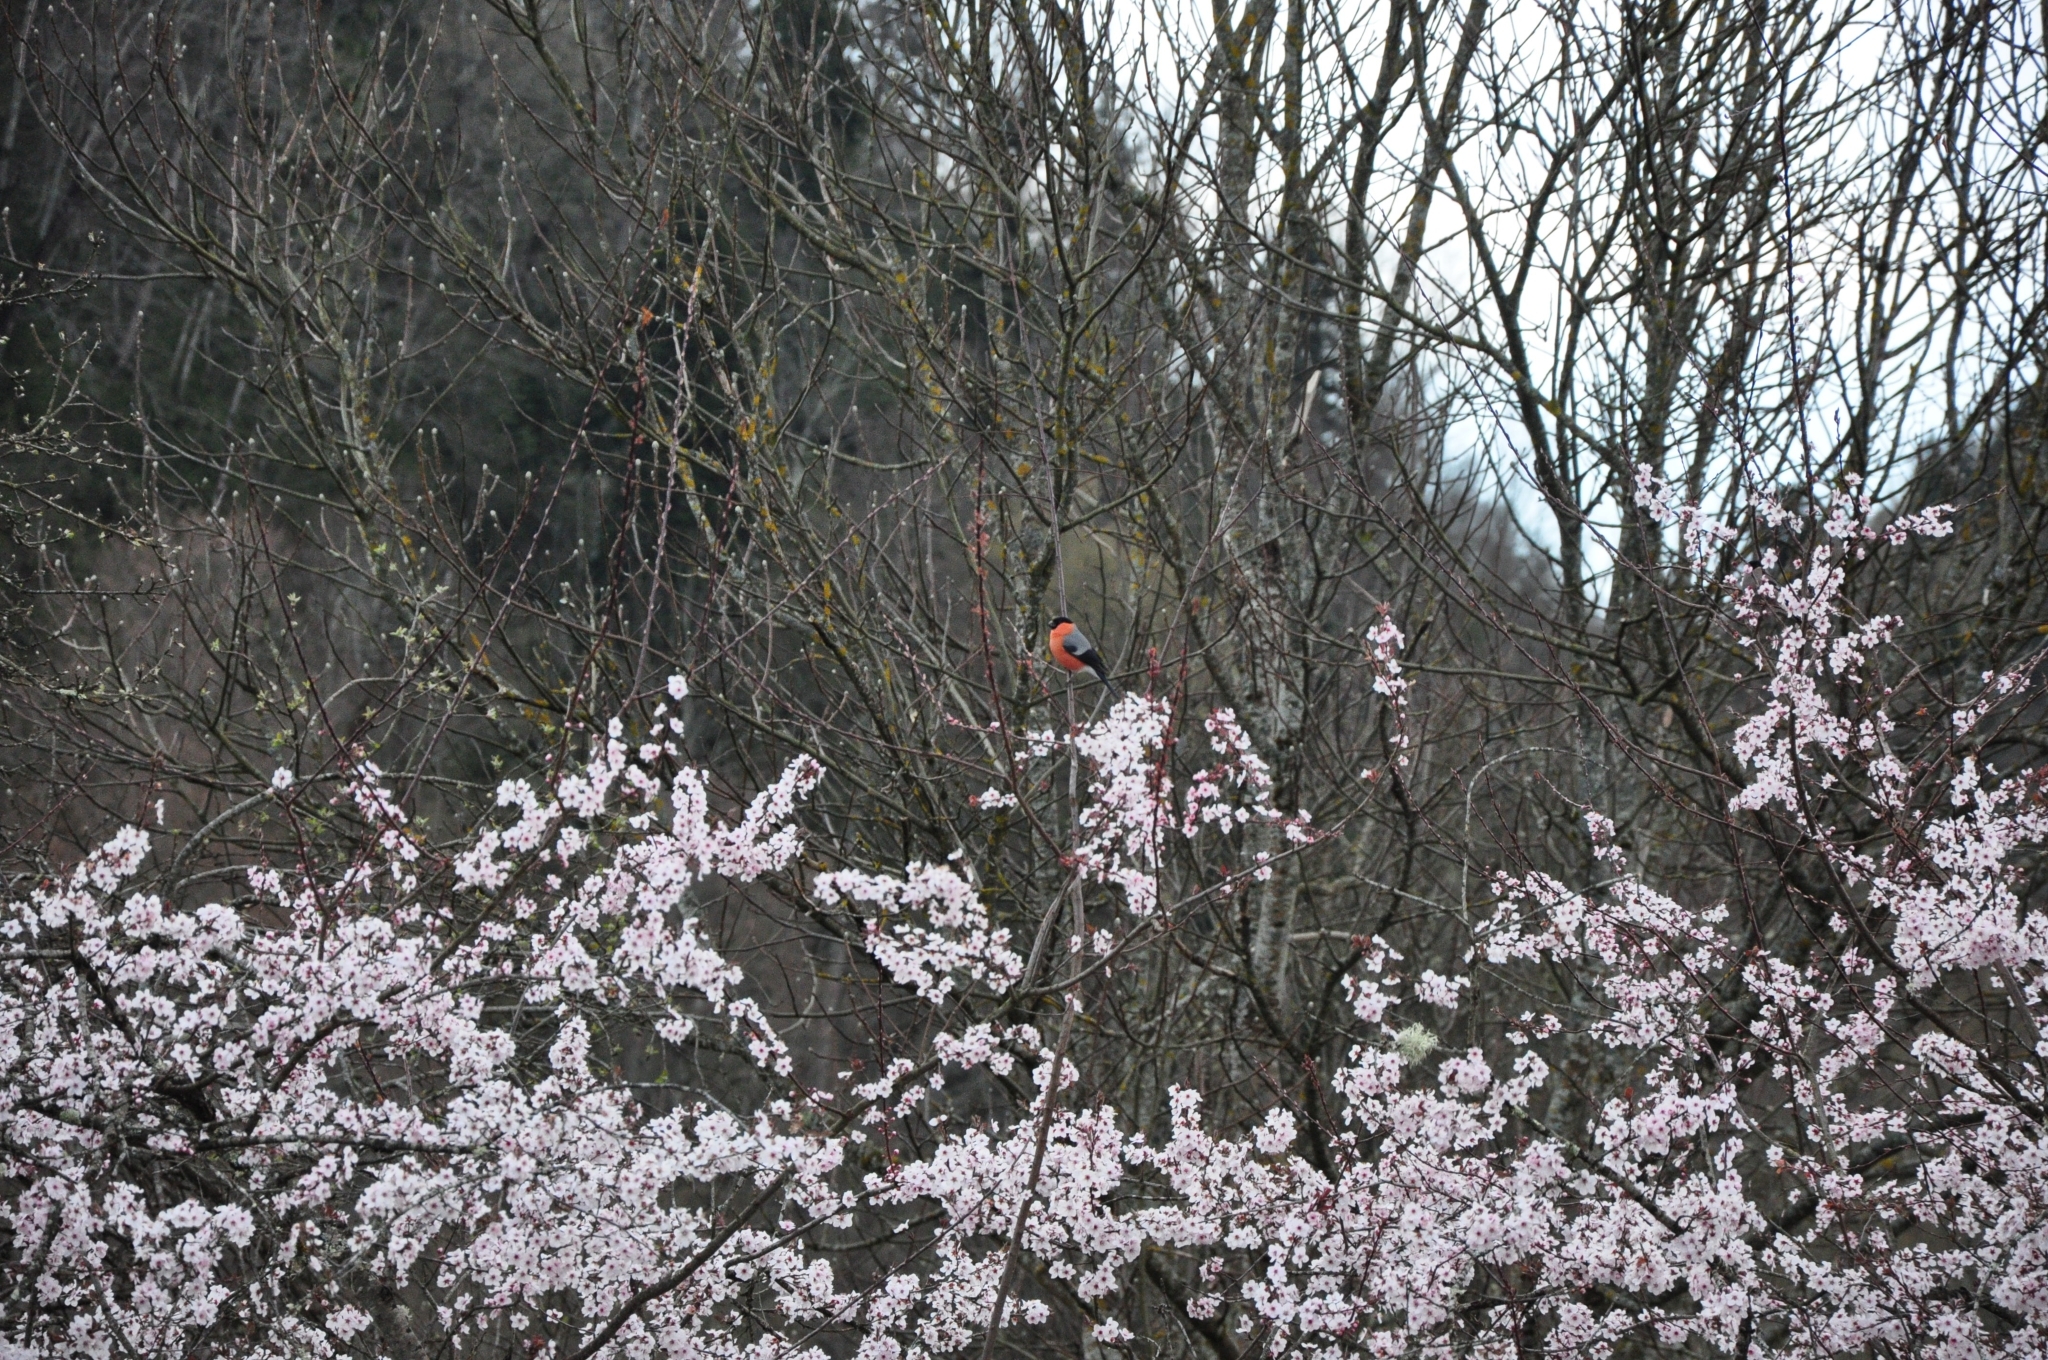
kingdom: Animalia
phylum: Chordata
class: Aves
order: Passeriformes
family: Fringillidae
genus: Pyrrhula
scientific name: Pyrrhula pyrrhula
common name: Eurasian bullfinch
